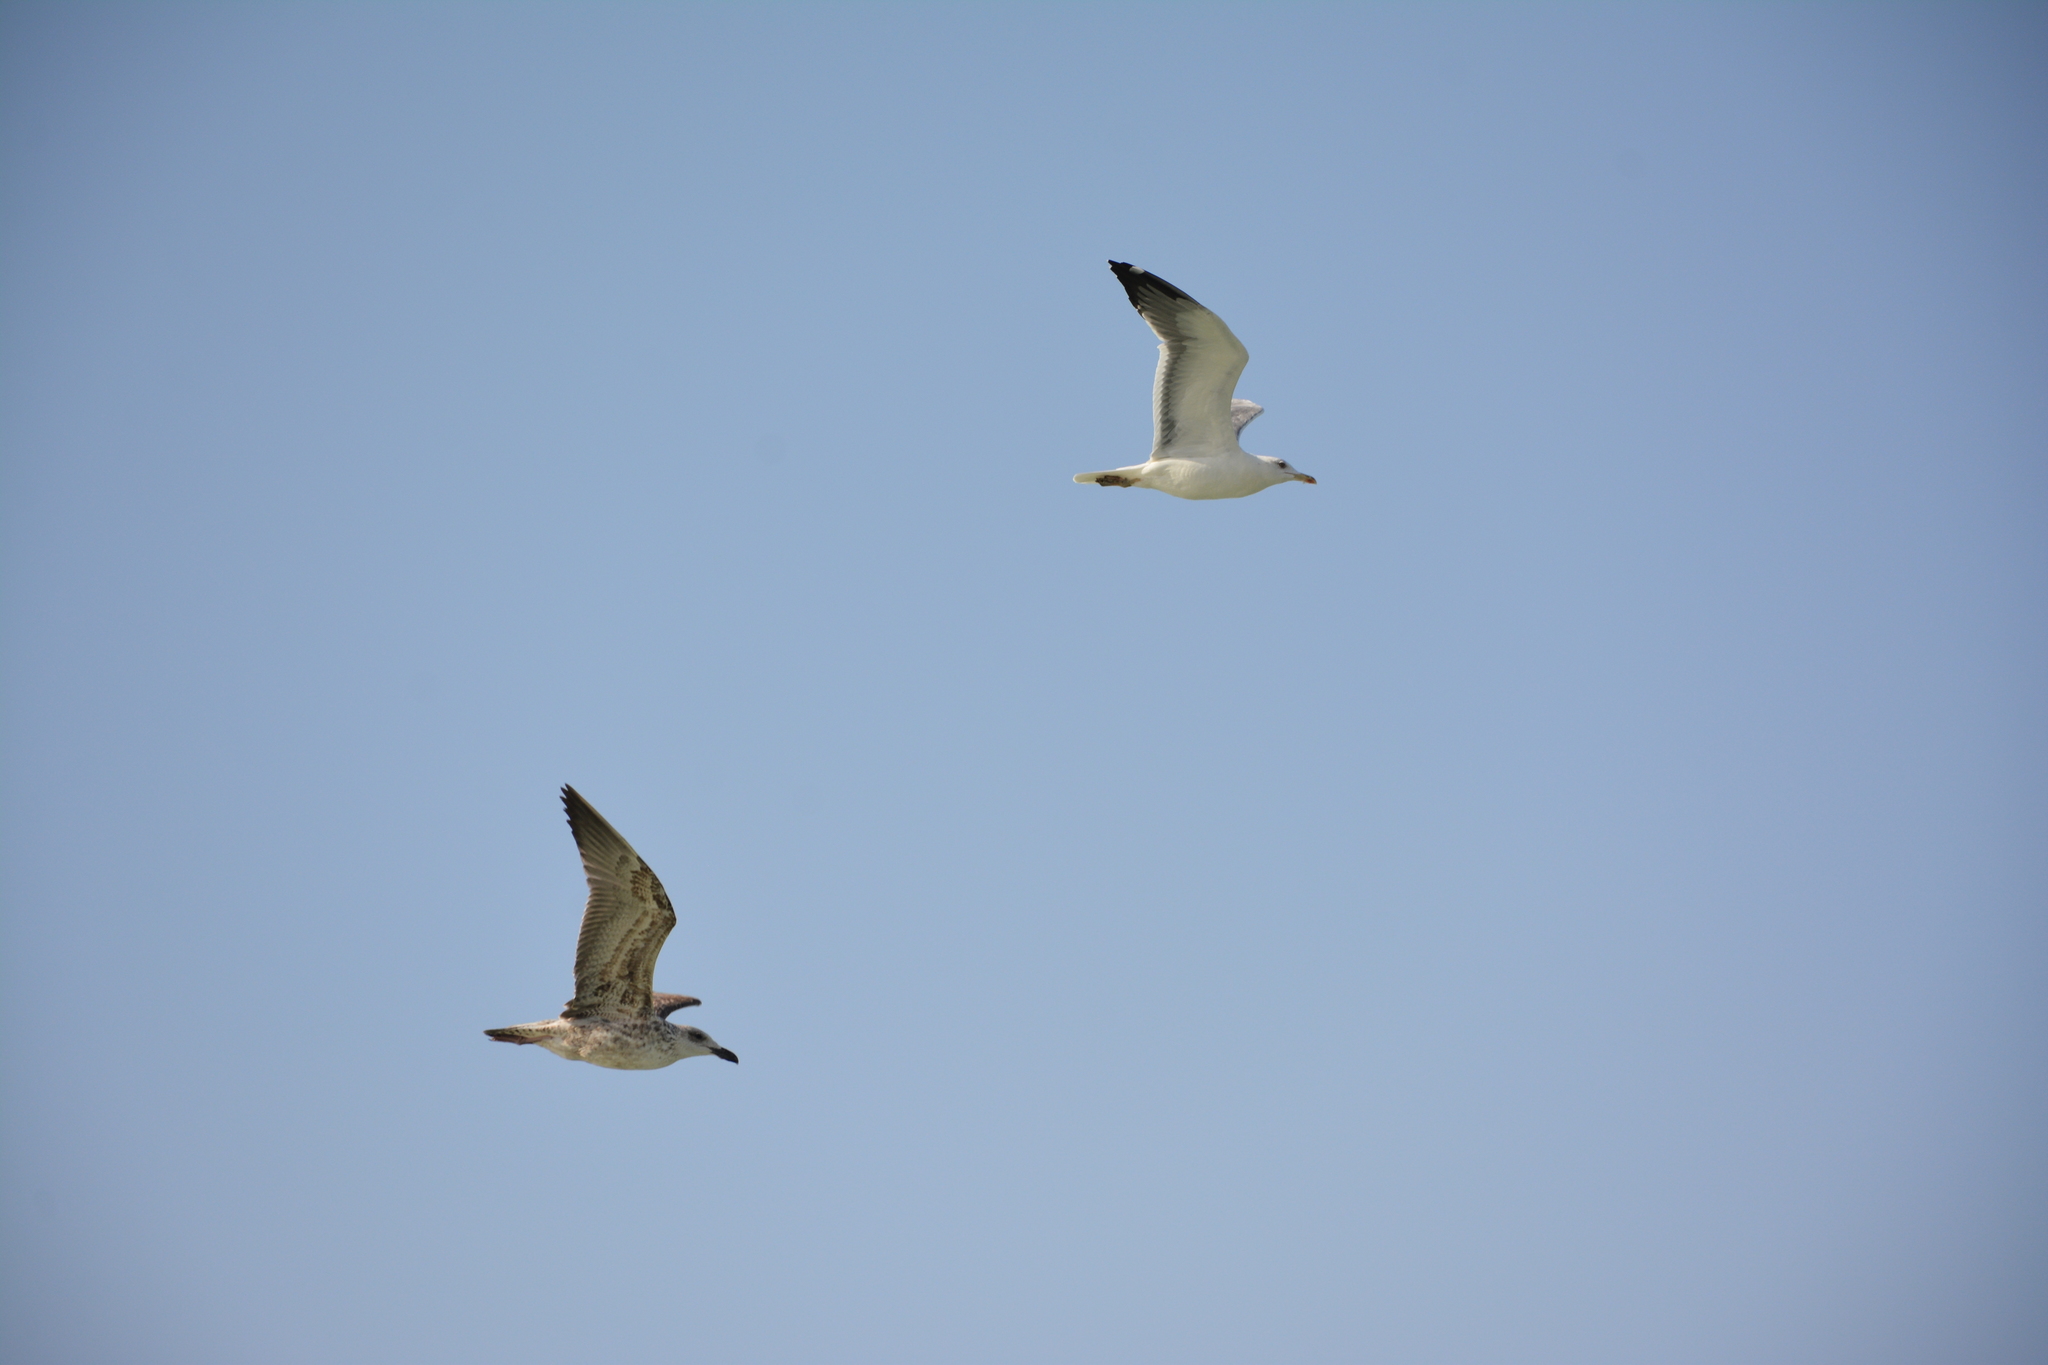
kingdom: Animalia
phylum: Chordata
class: Aves
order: Charadriiformes
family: Laridae
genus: Larus
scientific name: Larus fuscus
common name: Lesser black-backed gull
